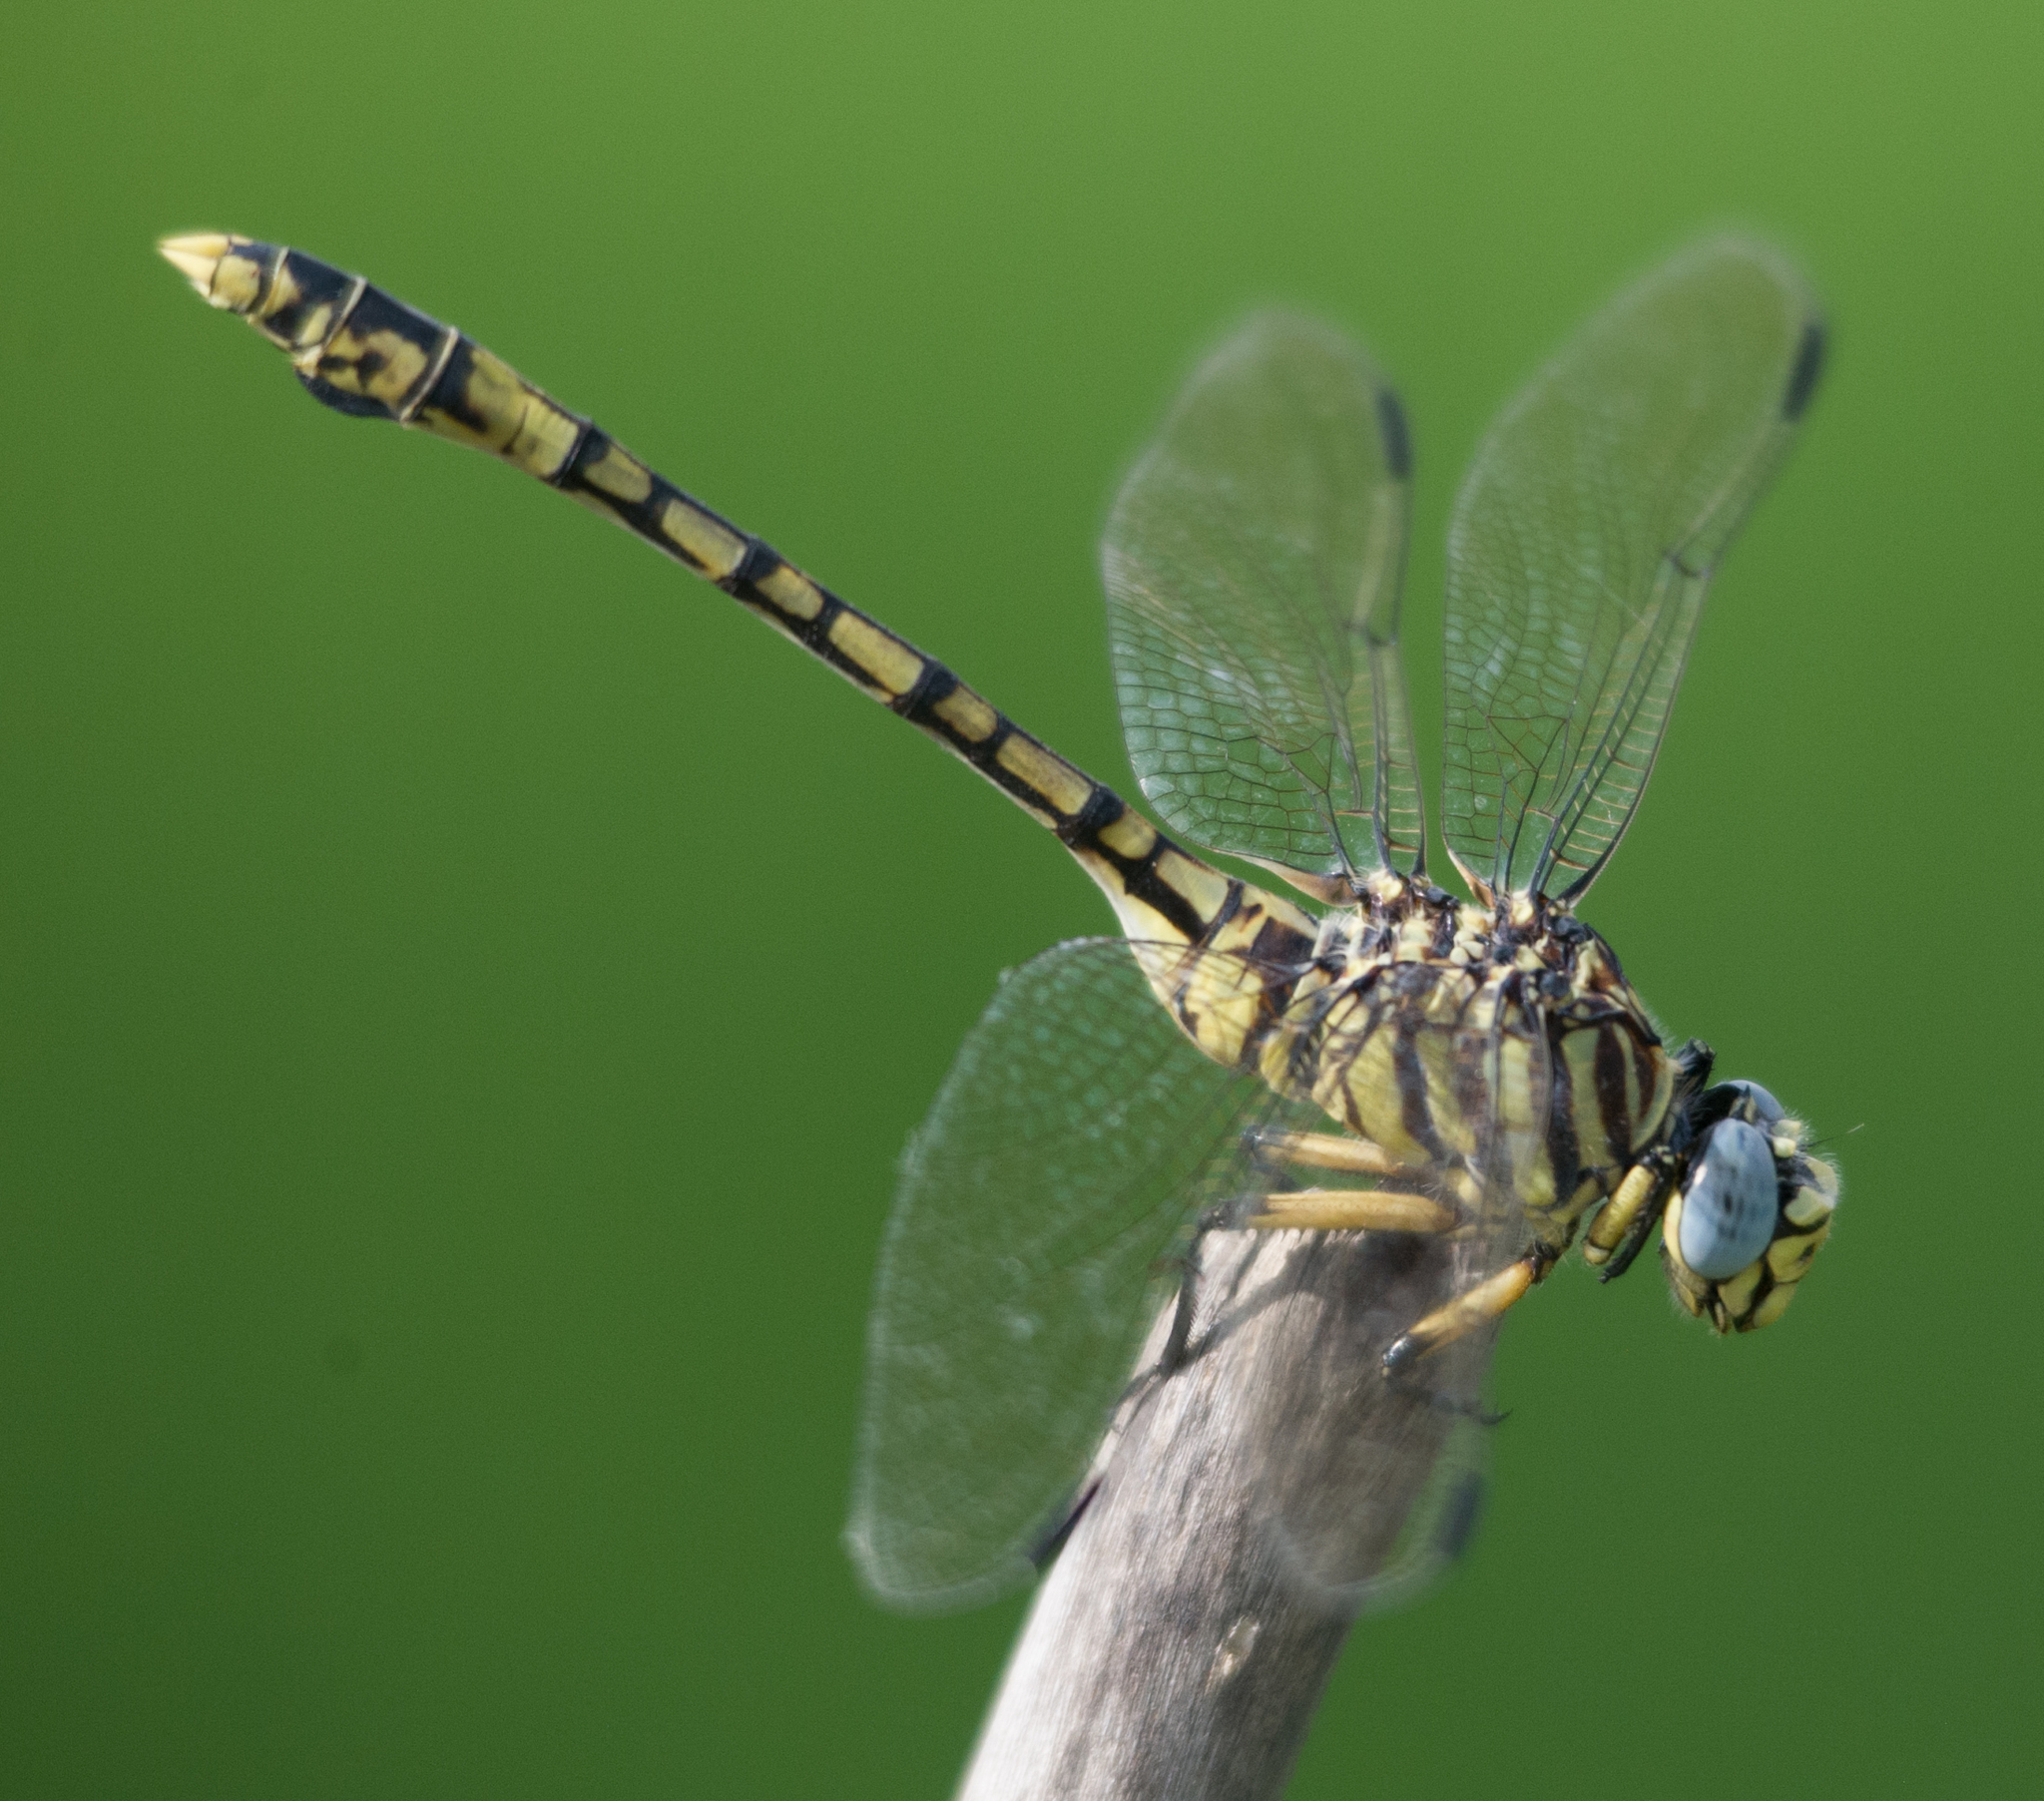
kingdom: Animalia
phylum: Arthropoda
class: Insecta
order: Odonata
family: Gomphidae
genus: Ictinogomphus
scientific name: Ictinogomphus dundoensis
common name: Swamp tigertail
